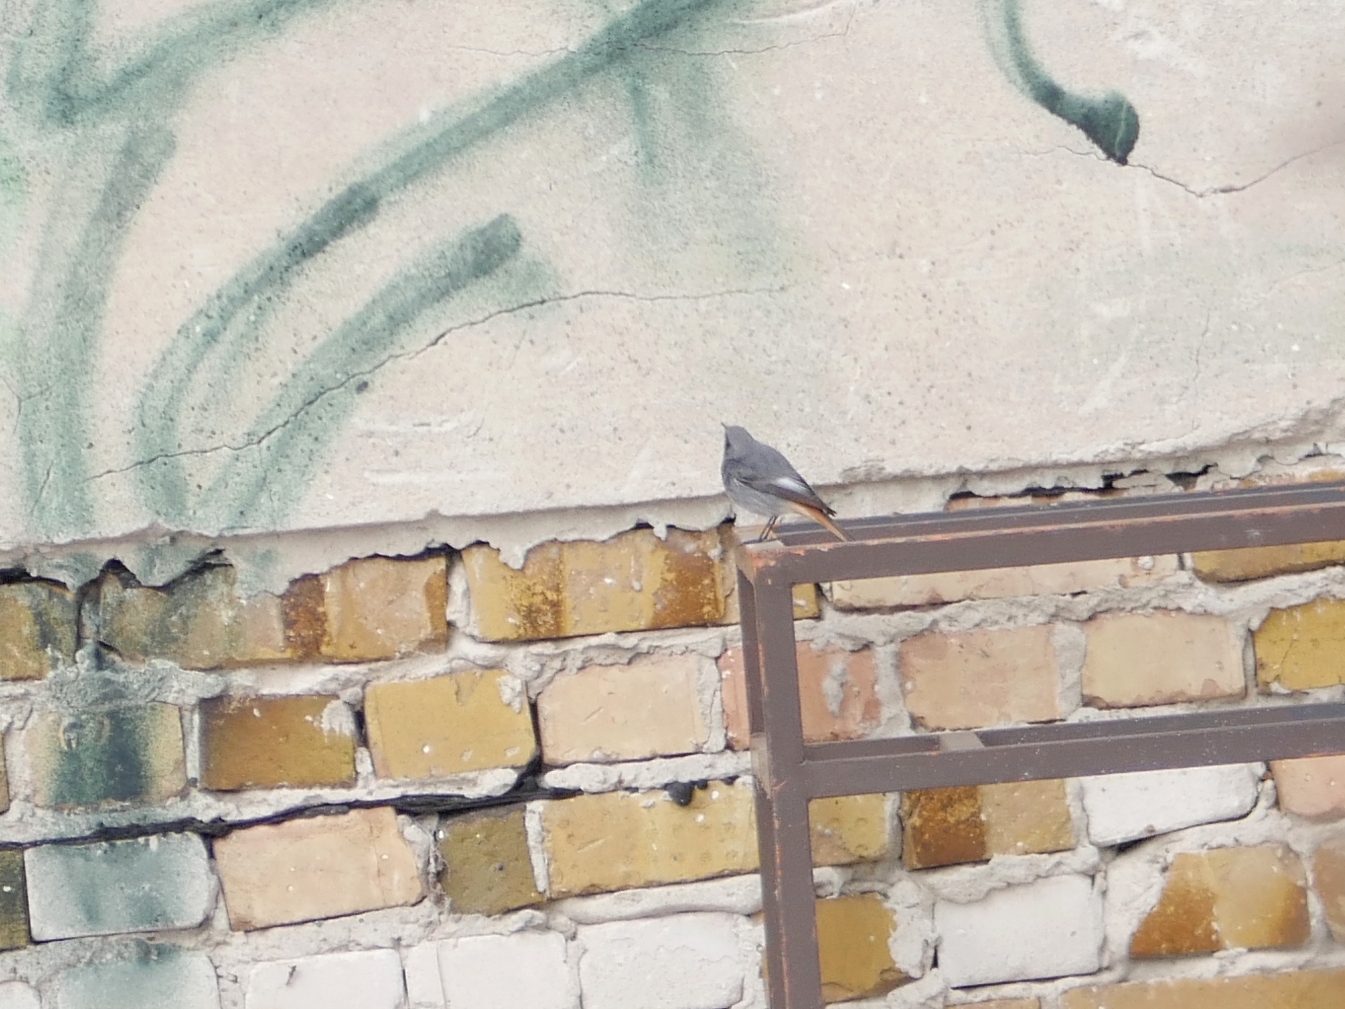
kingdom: Animalia
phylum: Chordata
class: Aves
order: Passeriformes
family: Muscicapidae
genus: Phoenicurus
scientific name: Phoenicurus ochruros
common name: Black redstart
